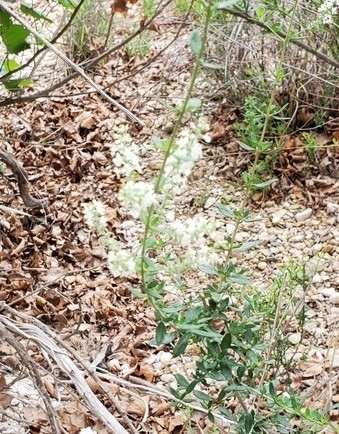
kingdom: Plantae
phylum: Tracheophyta
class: Magnoliopsida
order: Lamiales
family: Verbenaceae
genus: Aloysia
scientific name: Aloysia gratissima
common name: Common bee-brush
